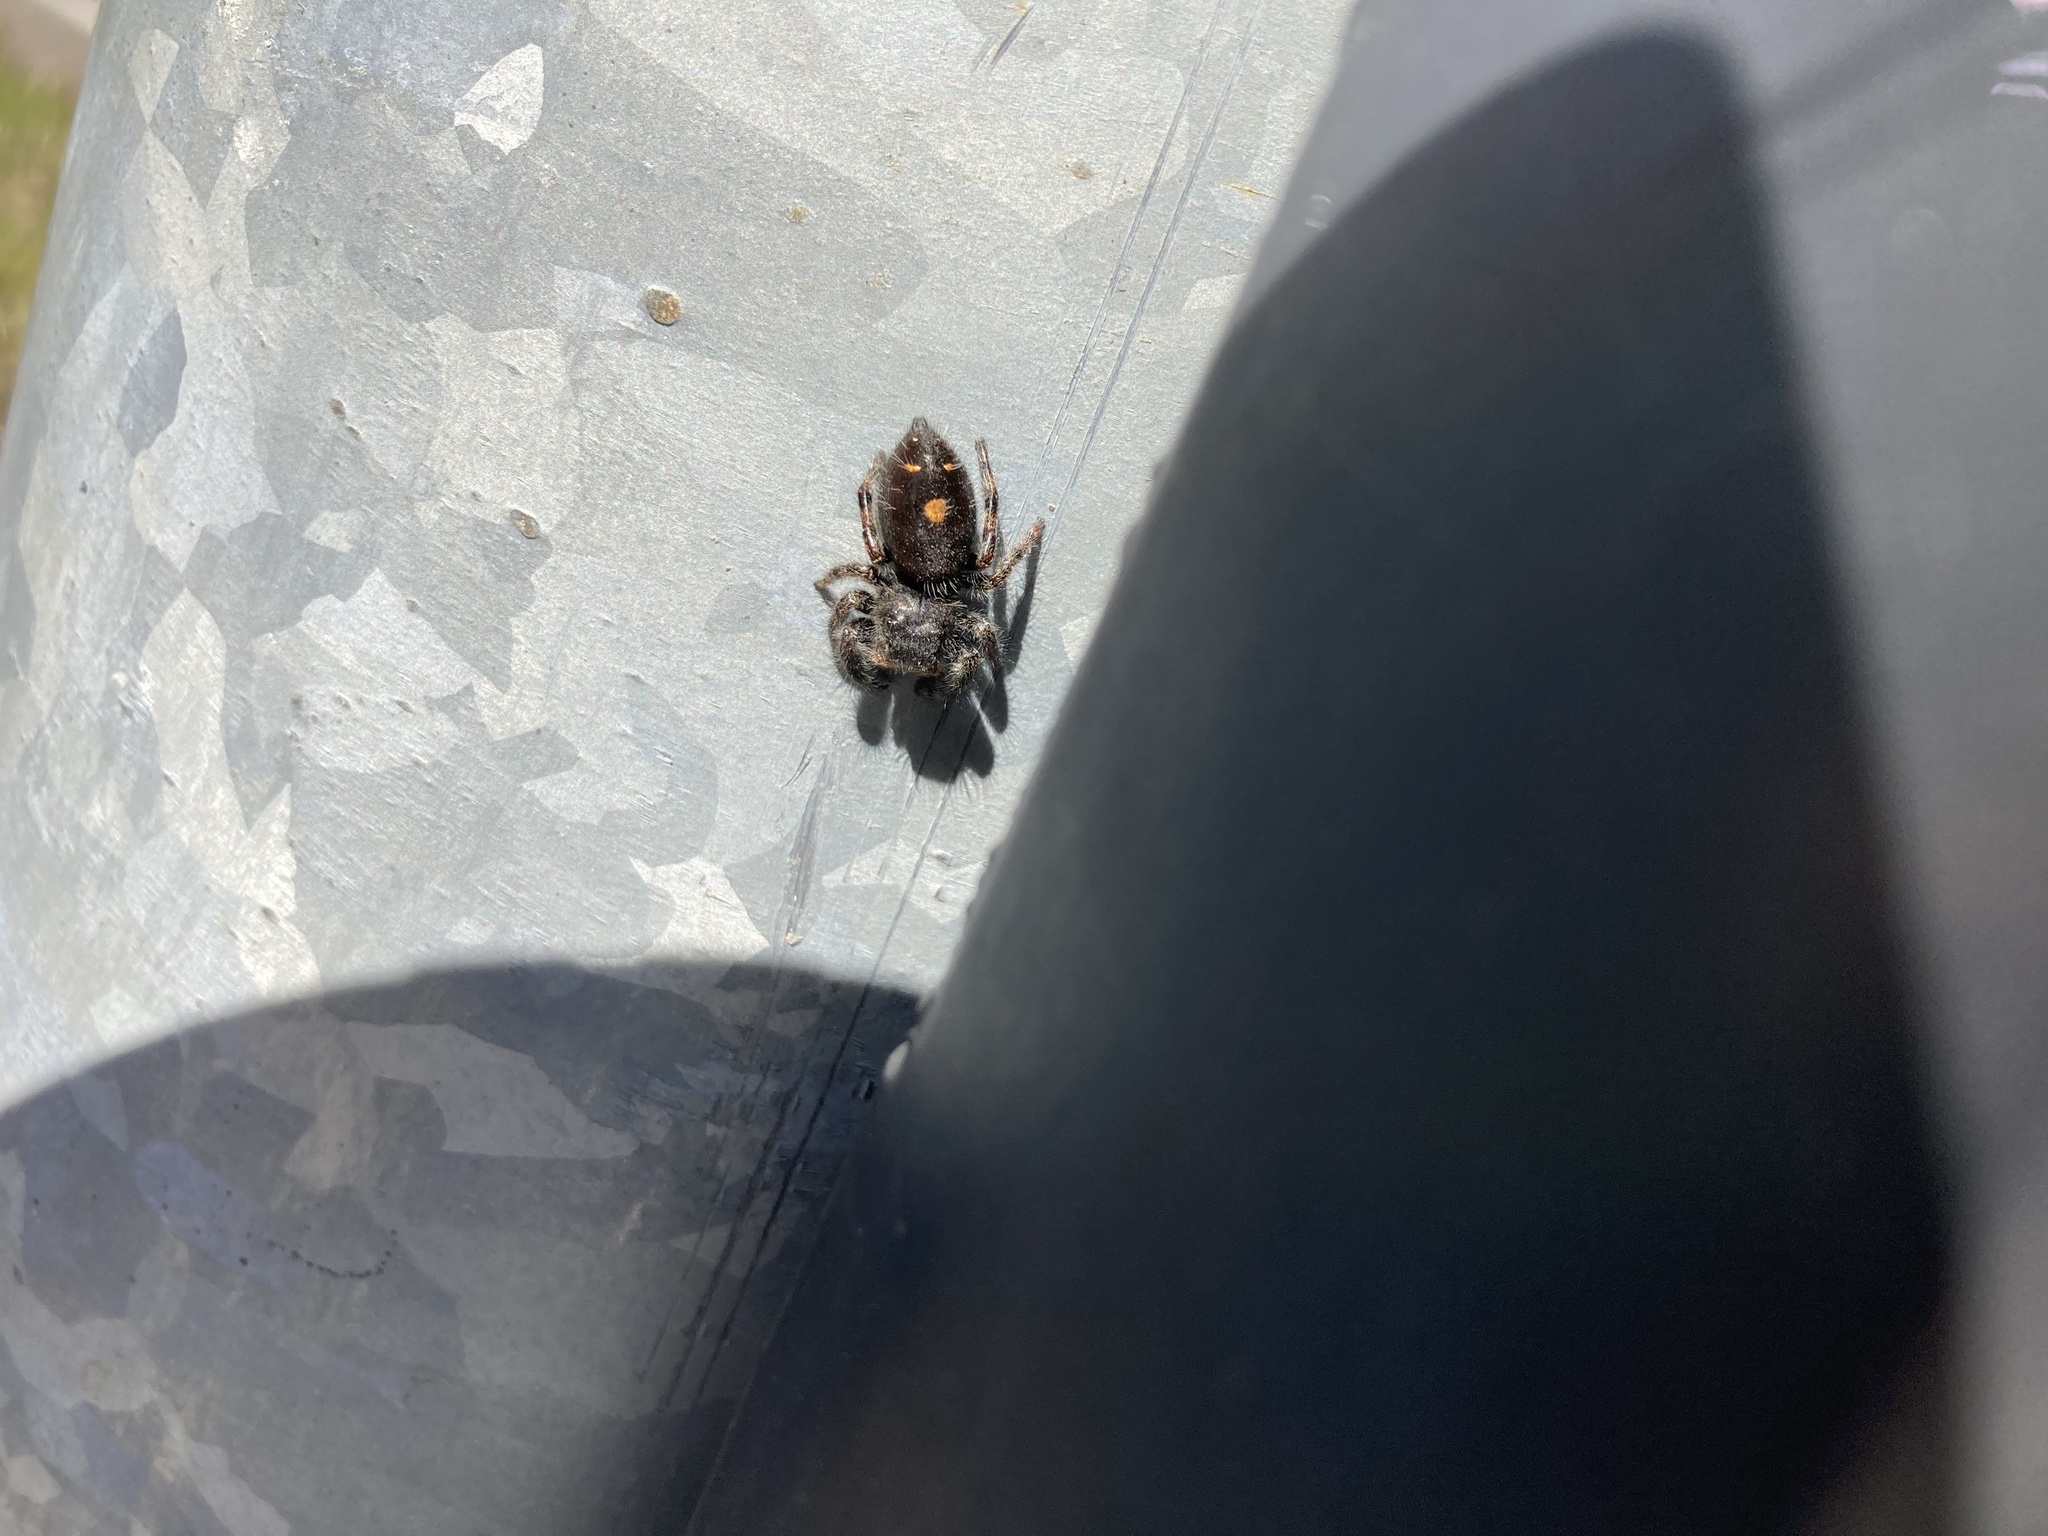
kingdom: Animalia
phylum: Arthropoda
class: Arachnida
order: Araneae
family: Salticidae
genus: Phidippus
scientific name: Phidippus audax
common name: Bold jumper
